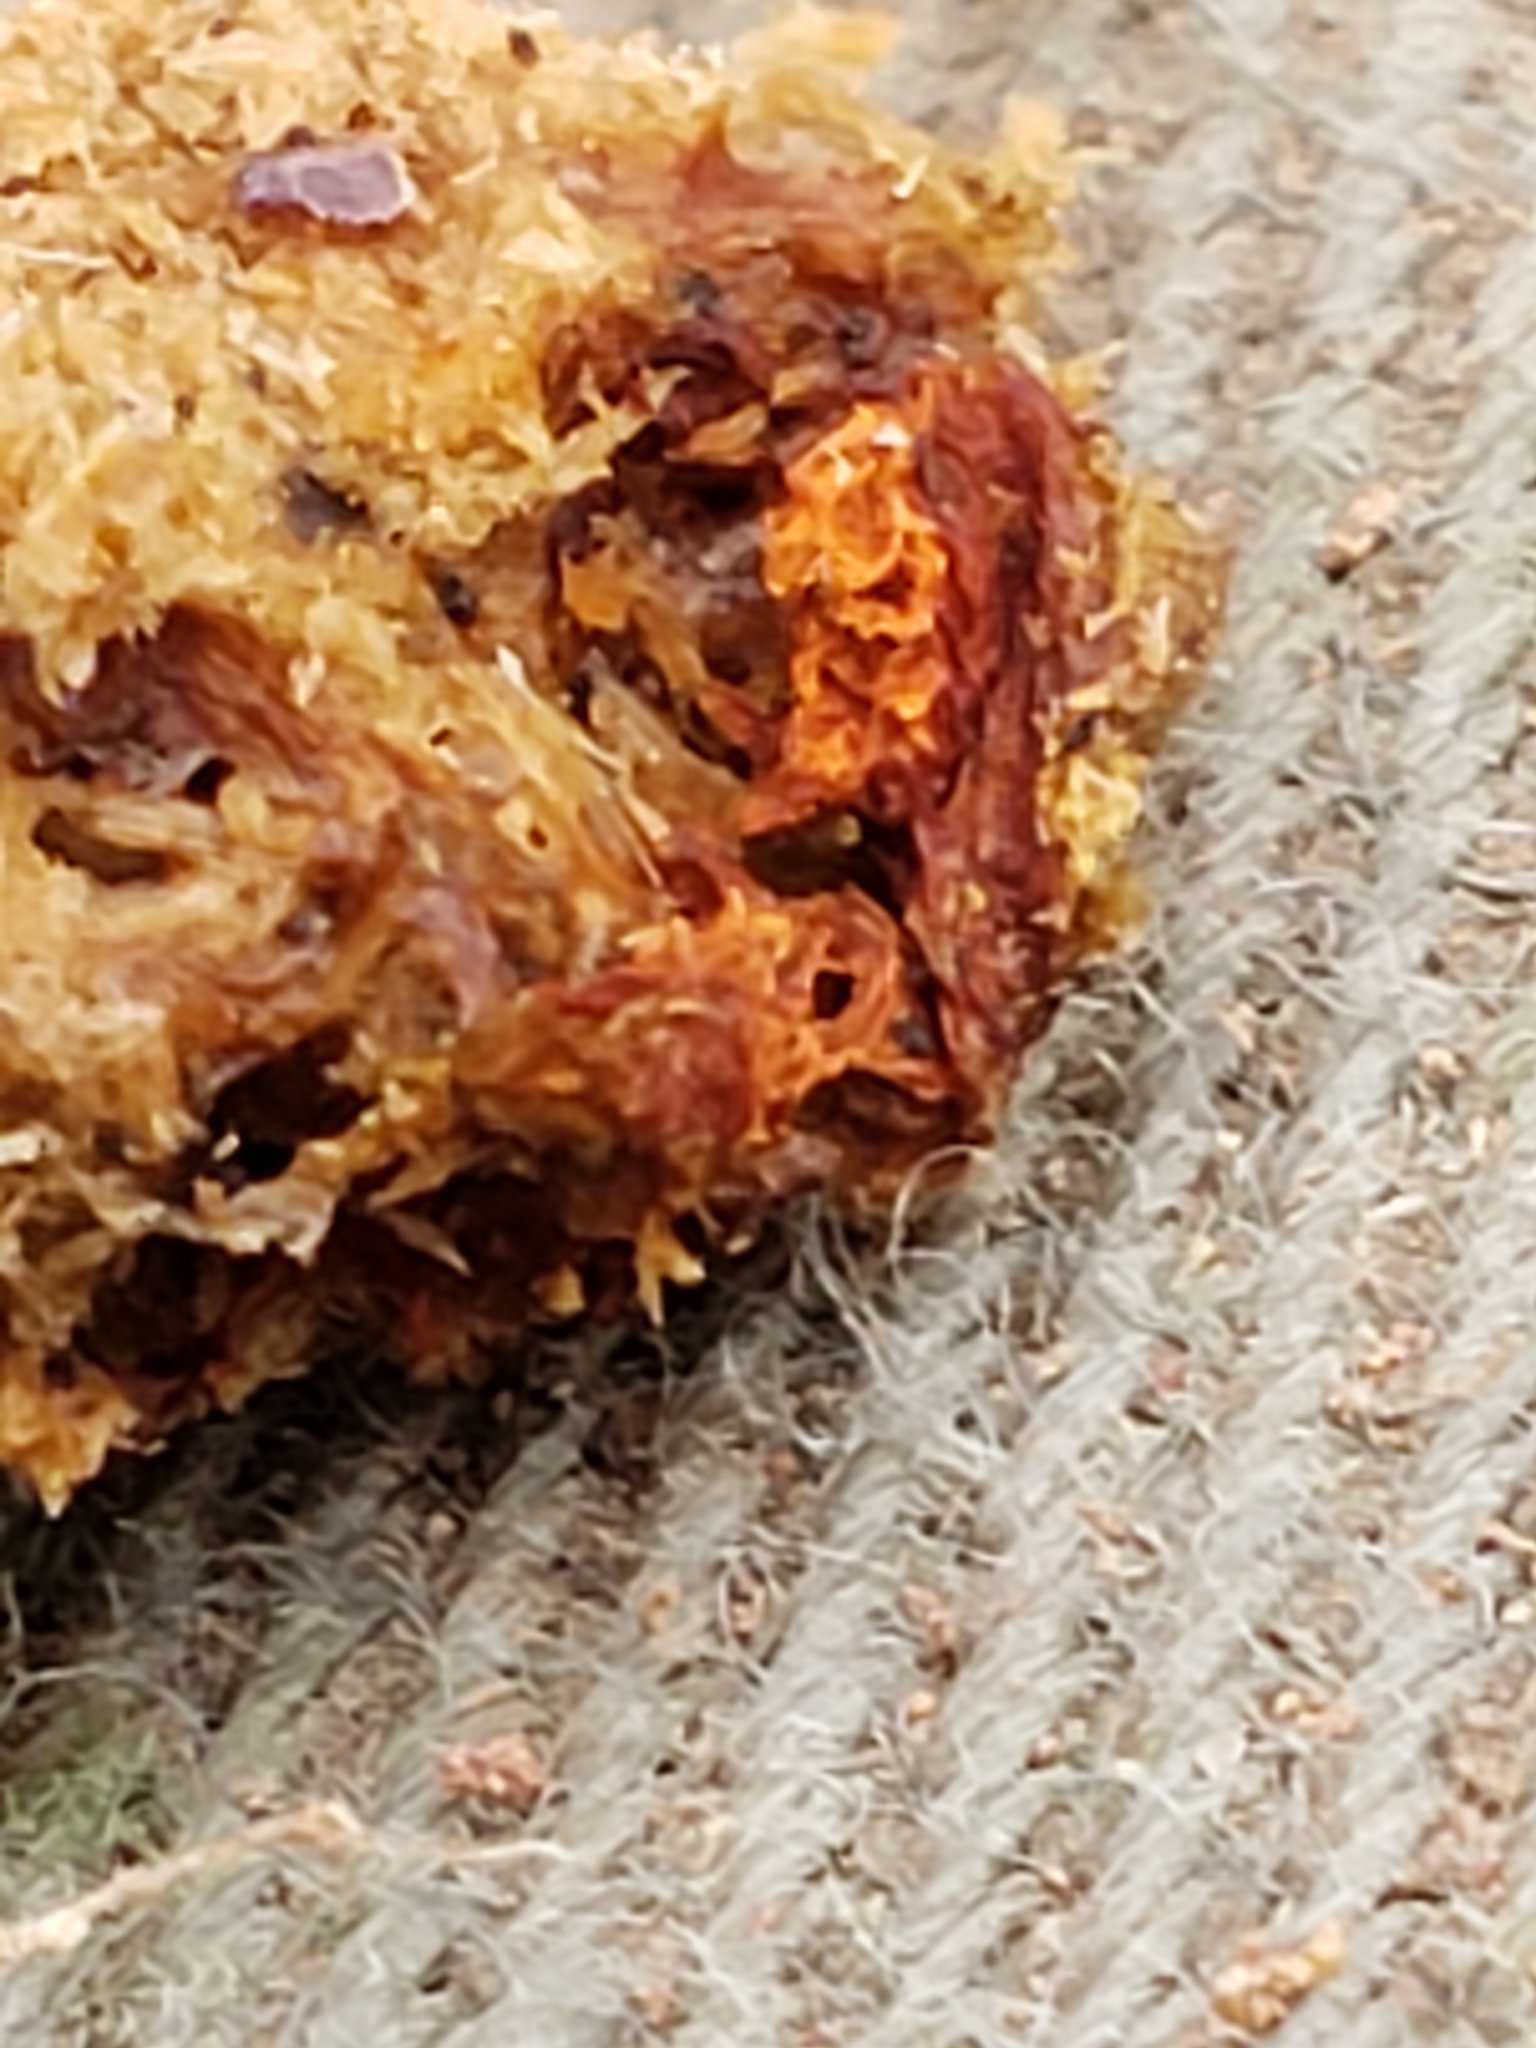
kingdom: Protozoa
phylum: Mycetozoa
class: Myxomycetes
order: Trichiales
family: Trichiaceae
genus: Metatrichia
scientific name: Metatrichia vesparia
